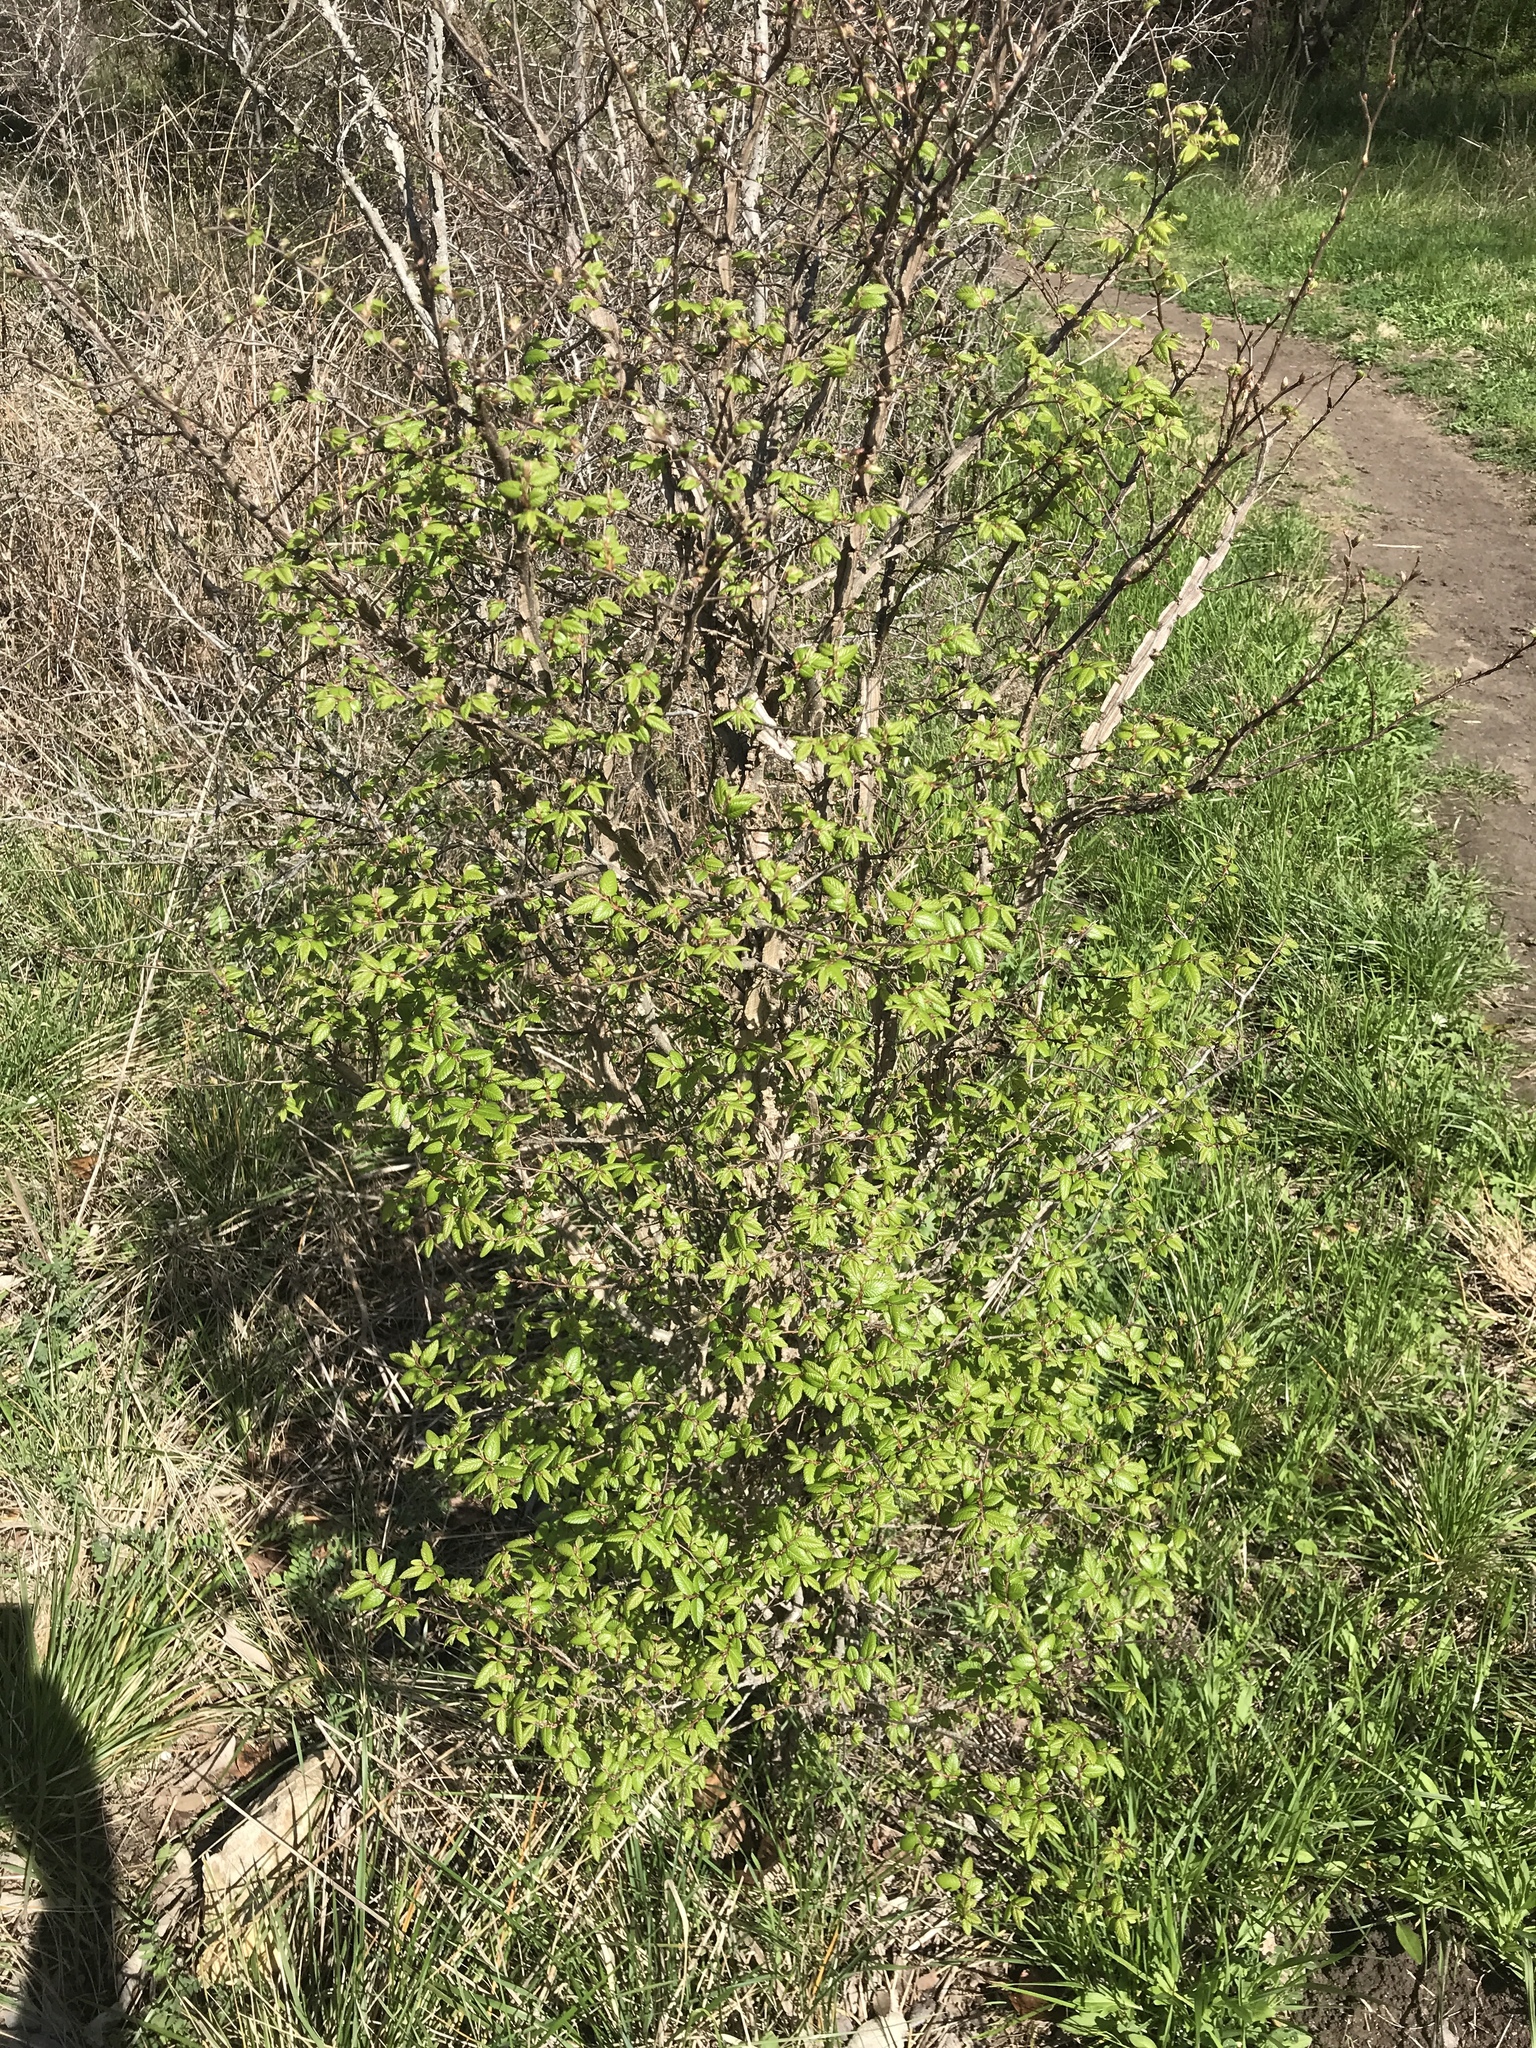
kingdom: Plantae
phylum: Tracheophyta
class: Magnoliopsida
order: Rosales
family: Ulmaceae
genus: Ulmus
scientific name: Ulmus crassifolia
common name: Basket elm
